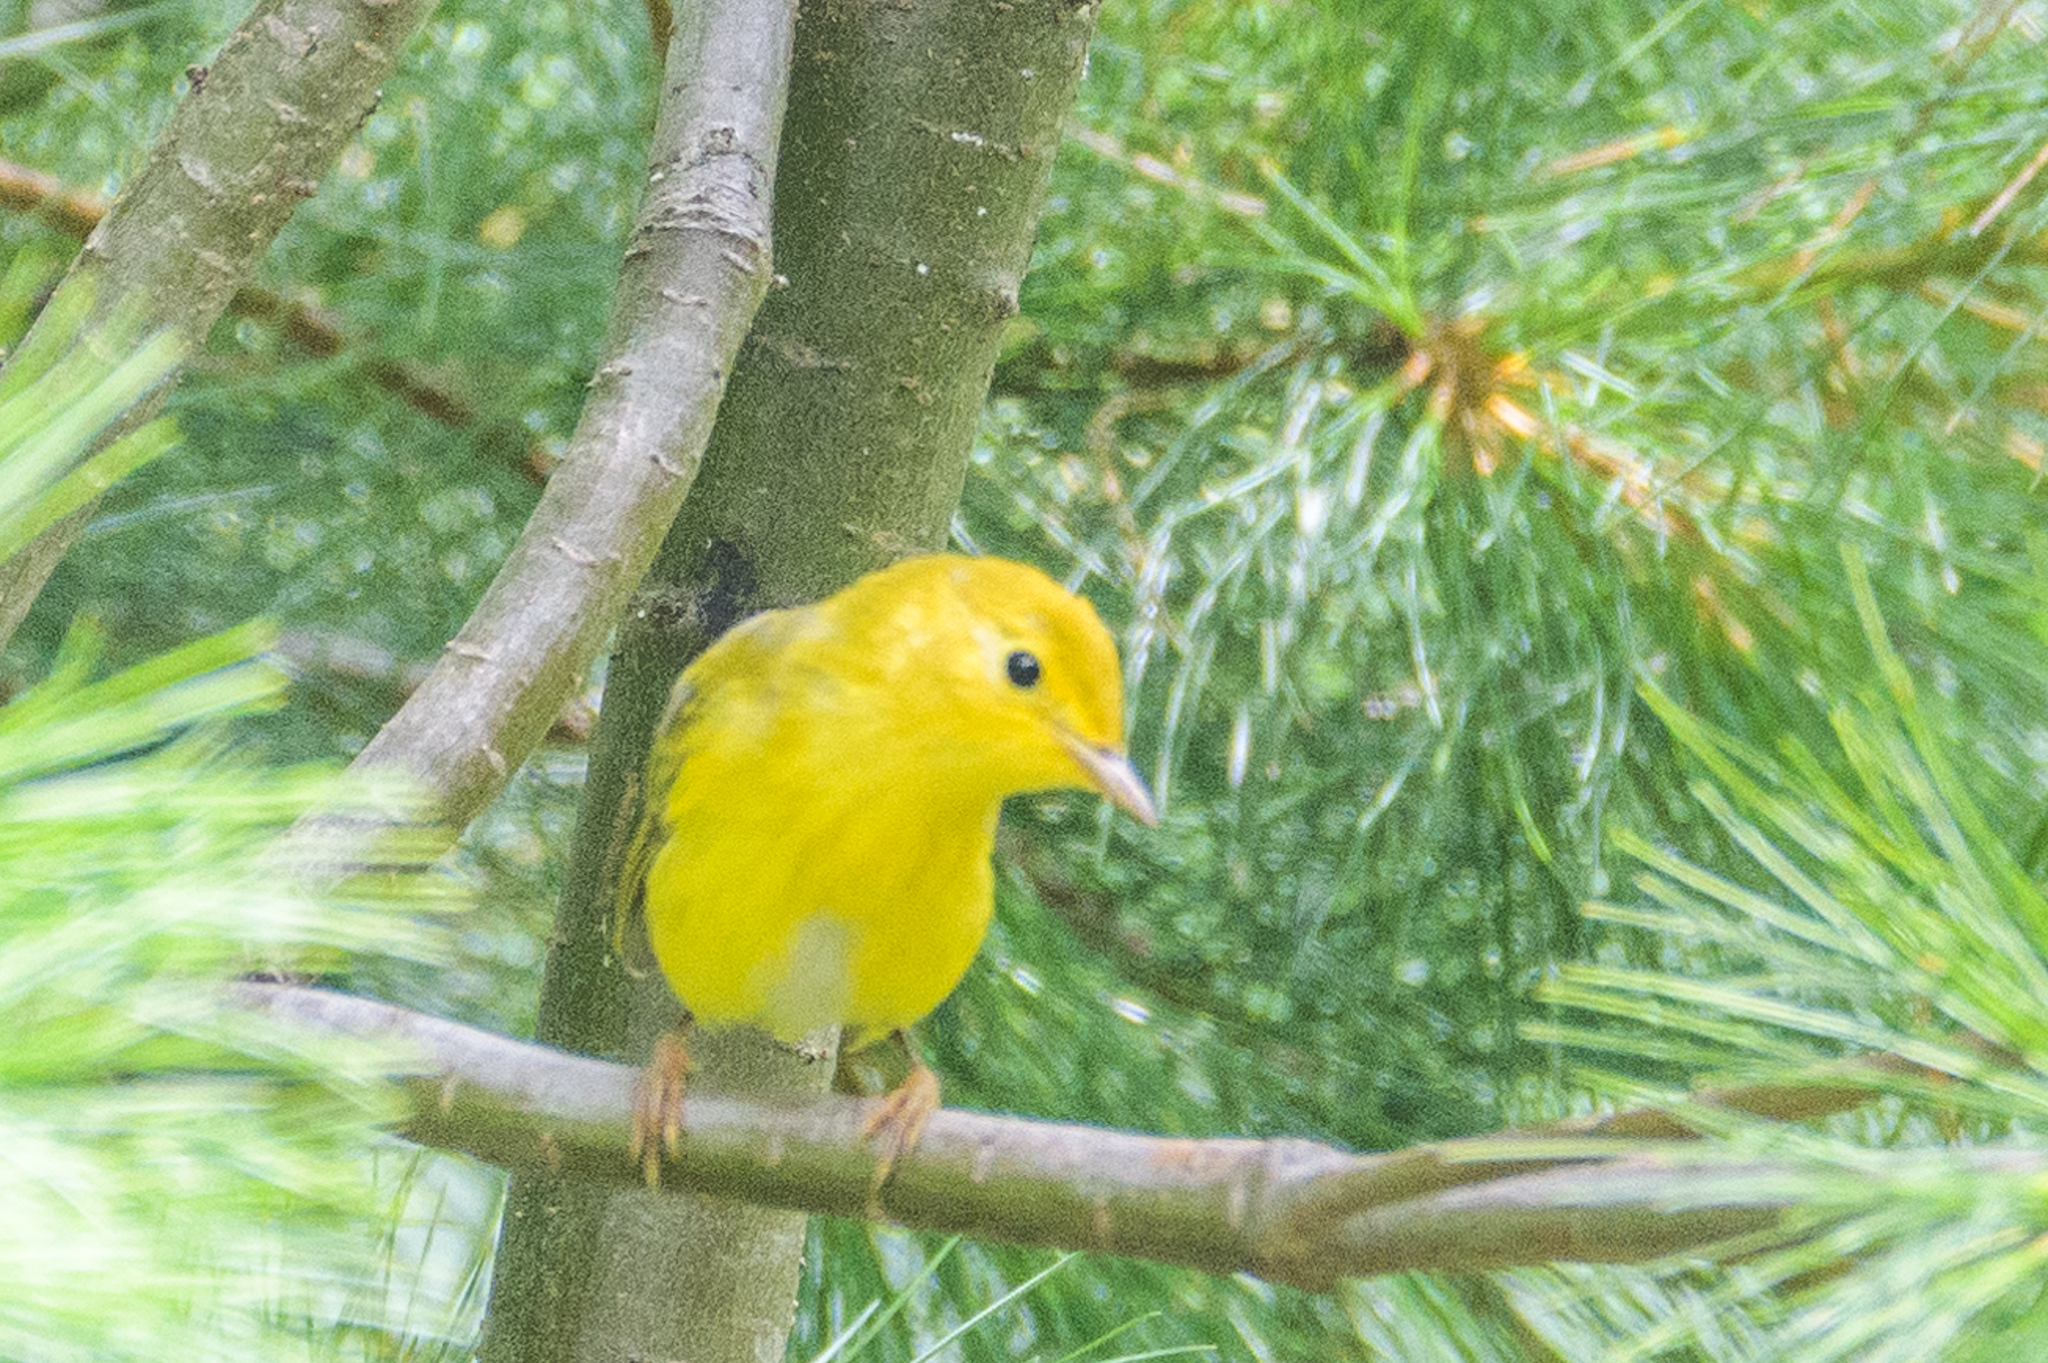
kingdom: Animalia
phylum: Chordata
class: Aves
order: Passeriformes
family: Parulidae
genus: Setophaga
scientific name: Setophaga petechia
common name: Yellow warbler
